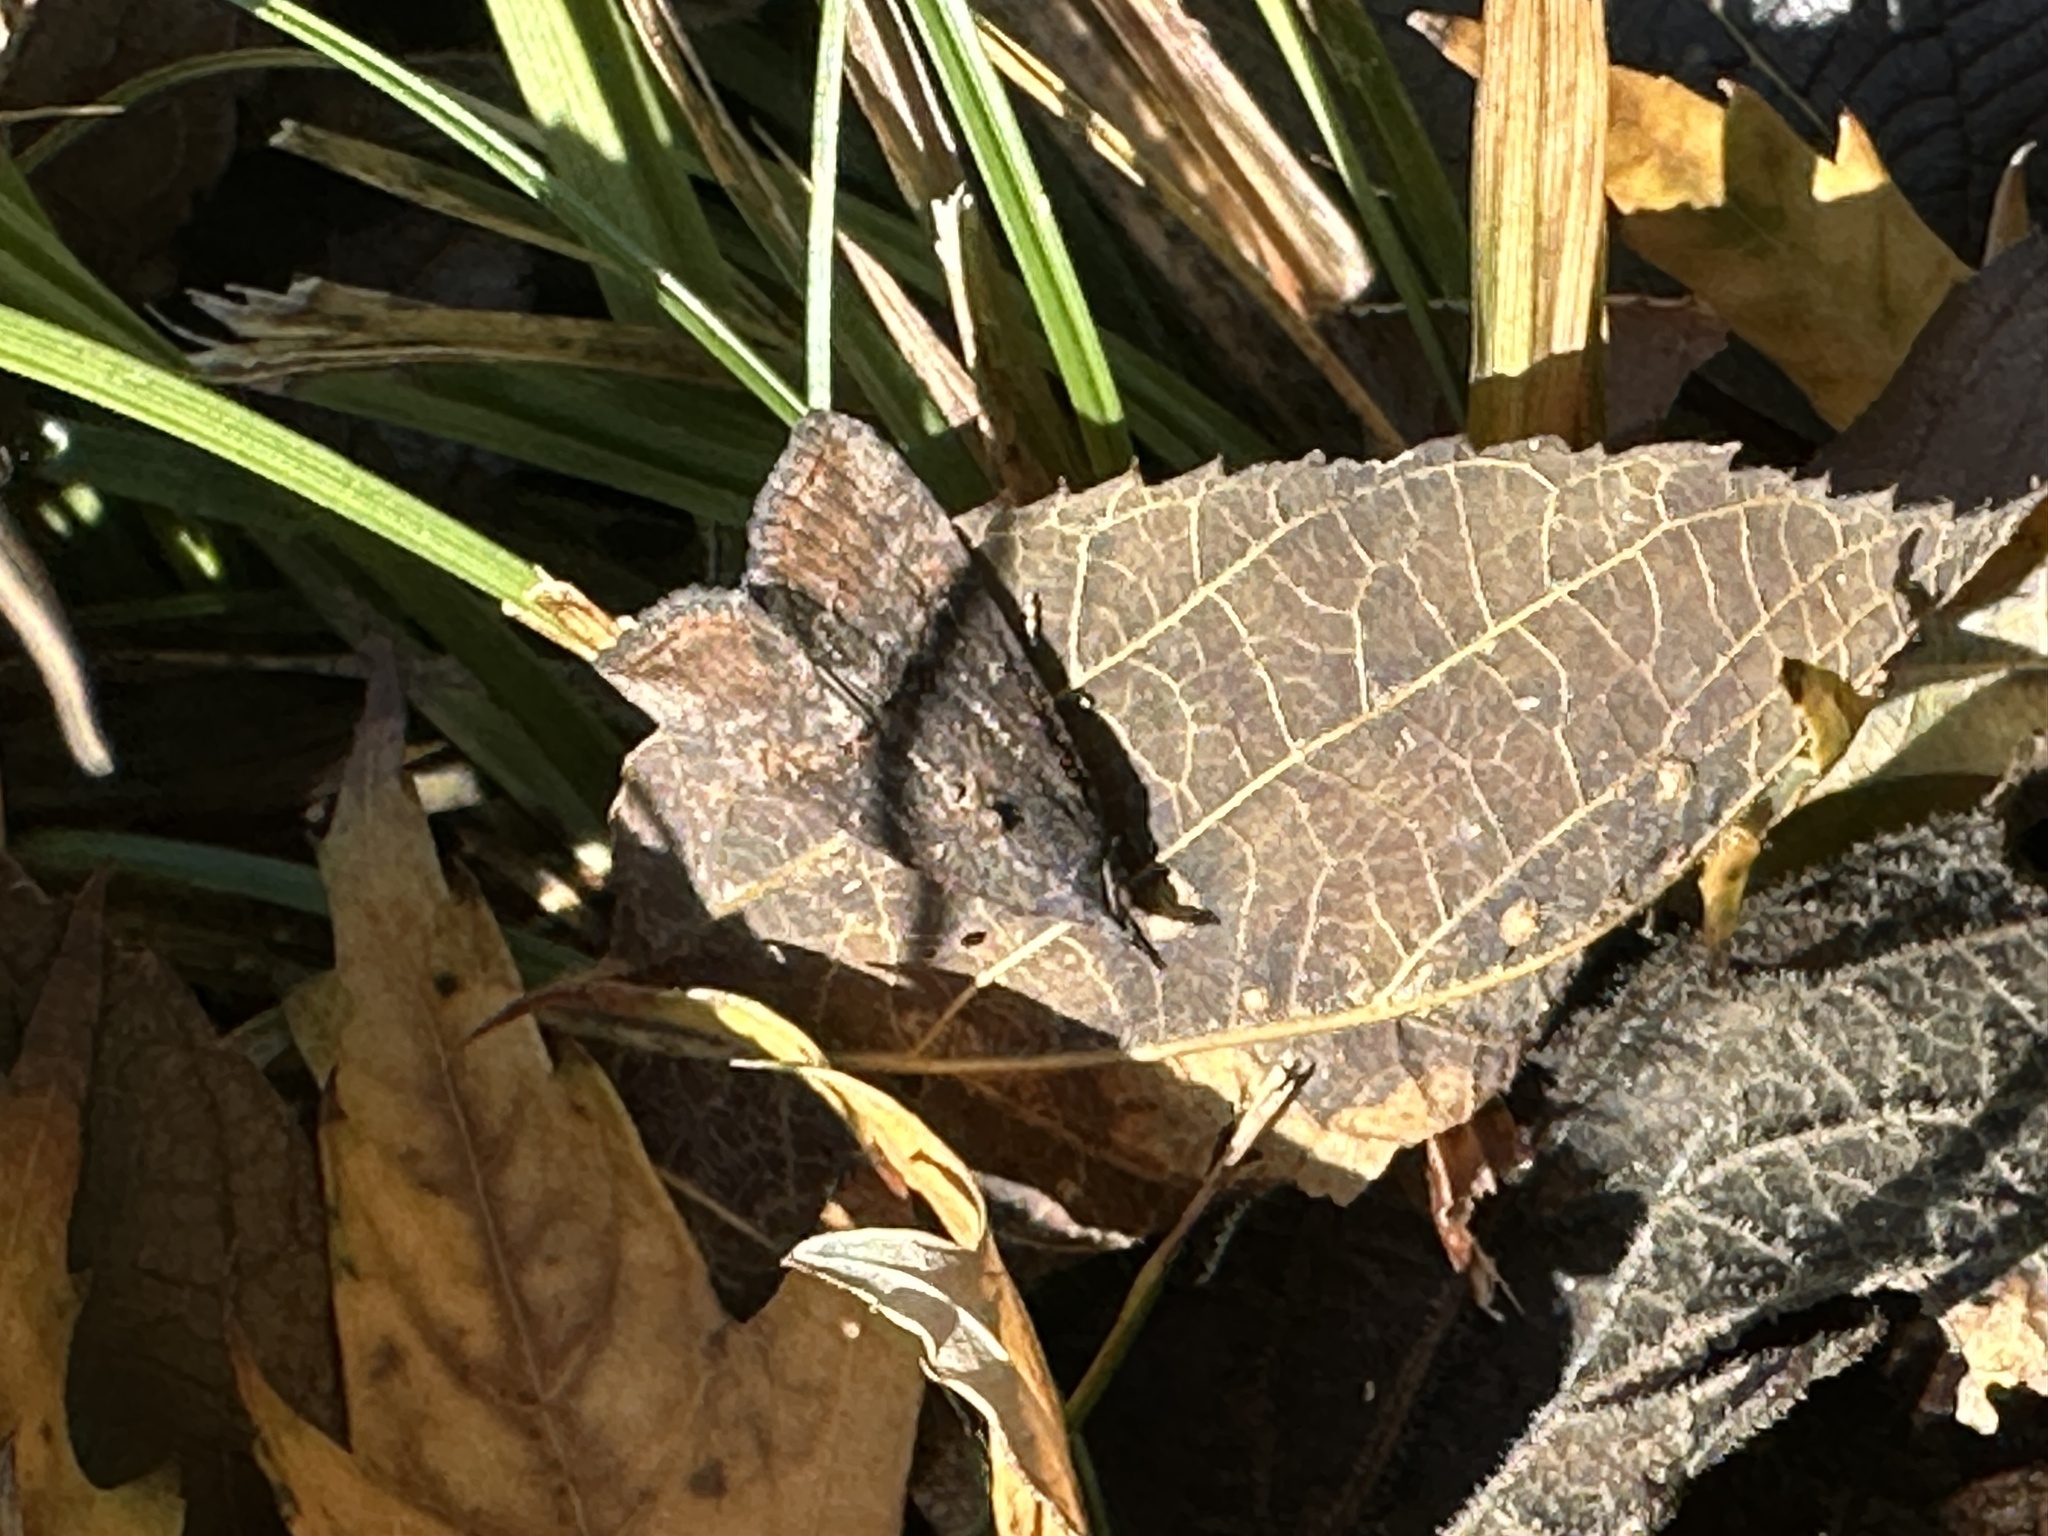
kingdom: Animalia
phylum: Arthropoda
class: Insecta
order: Lepidoptera
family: Erebidae
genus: Hypena
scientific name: Hypena scabra
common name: Green cloverworm
